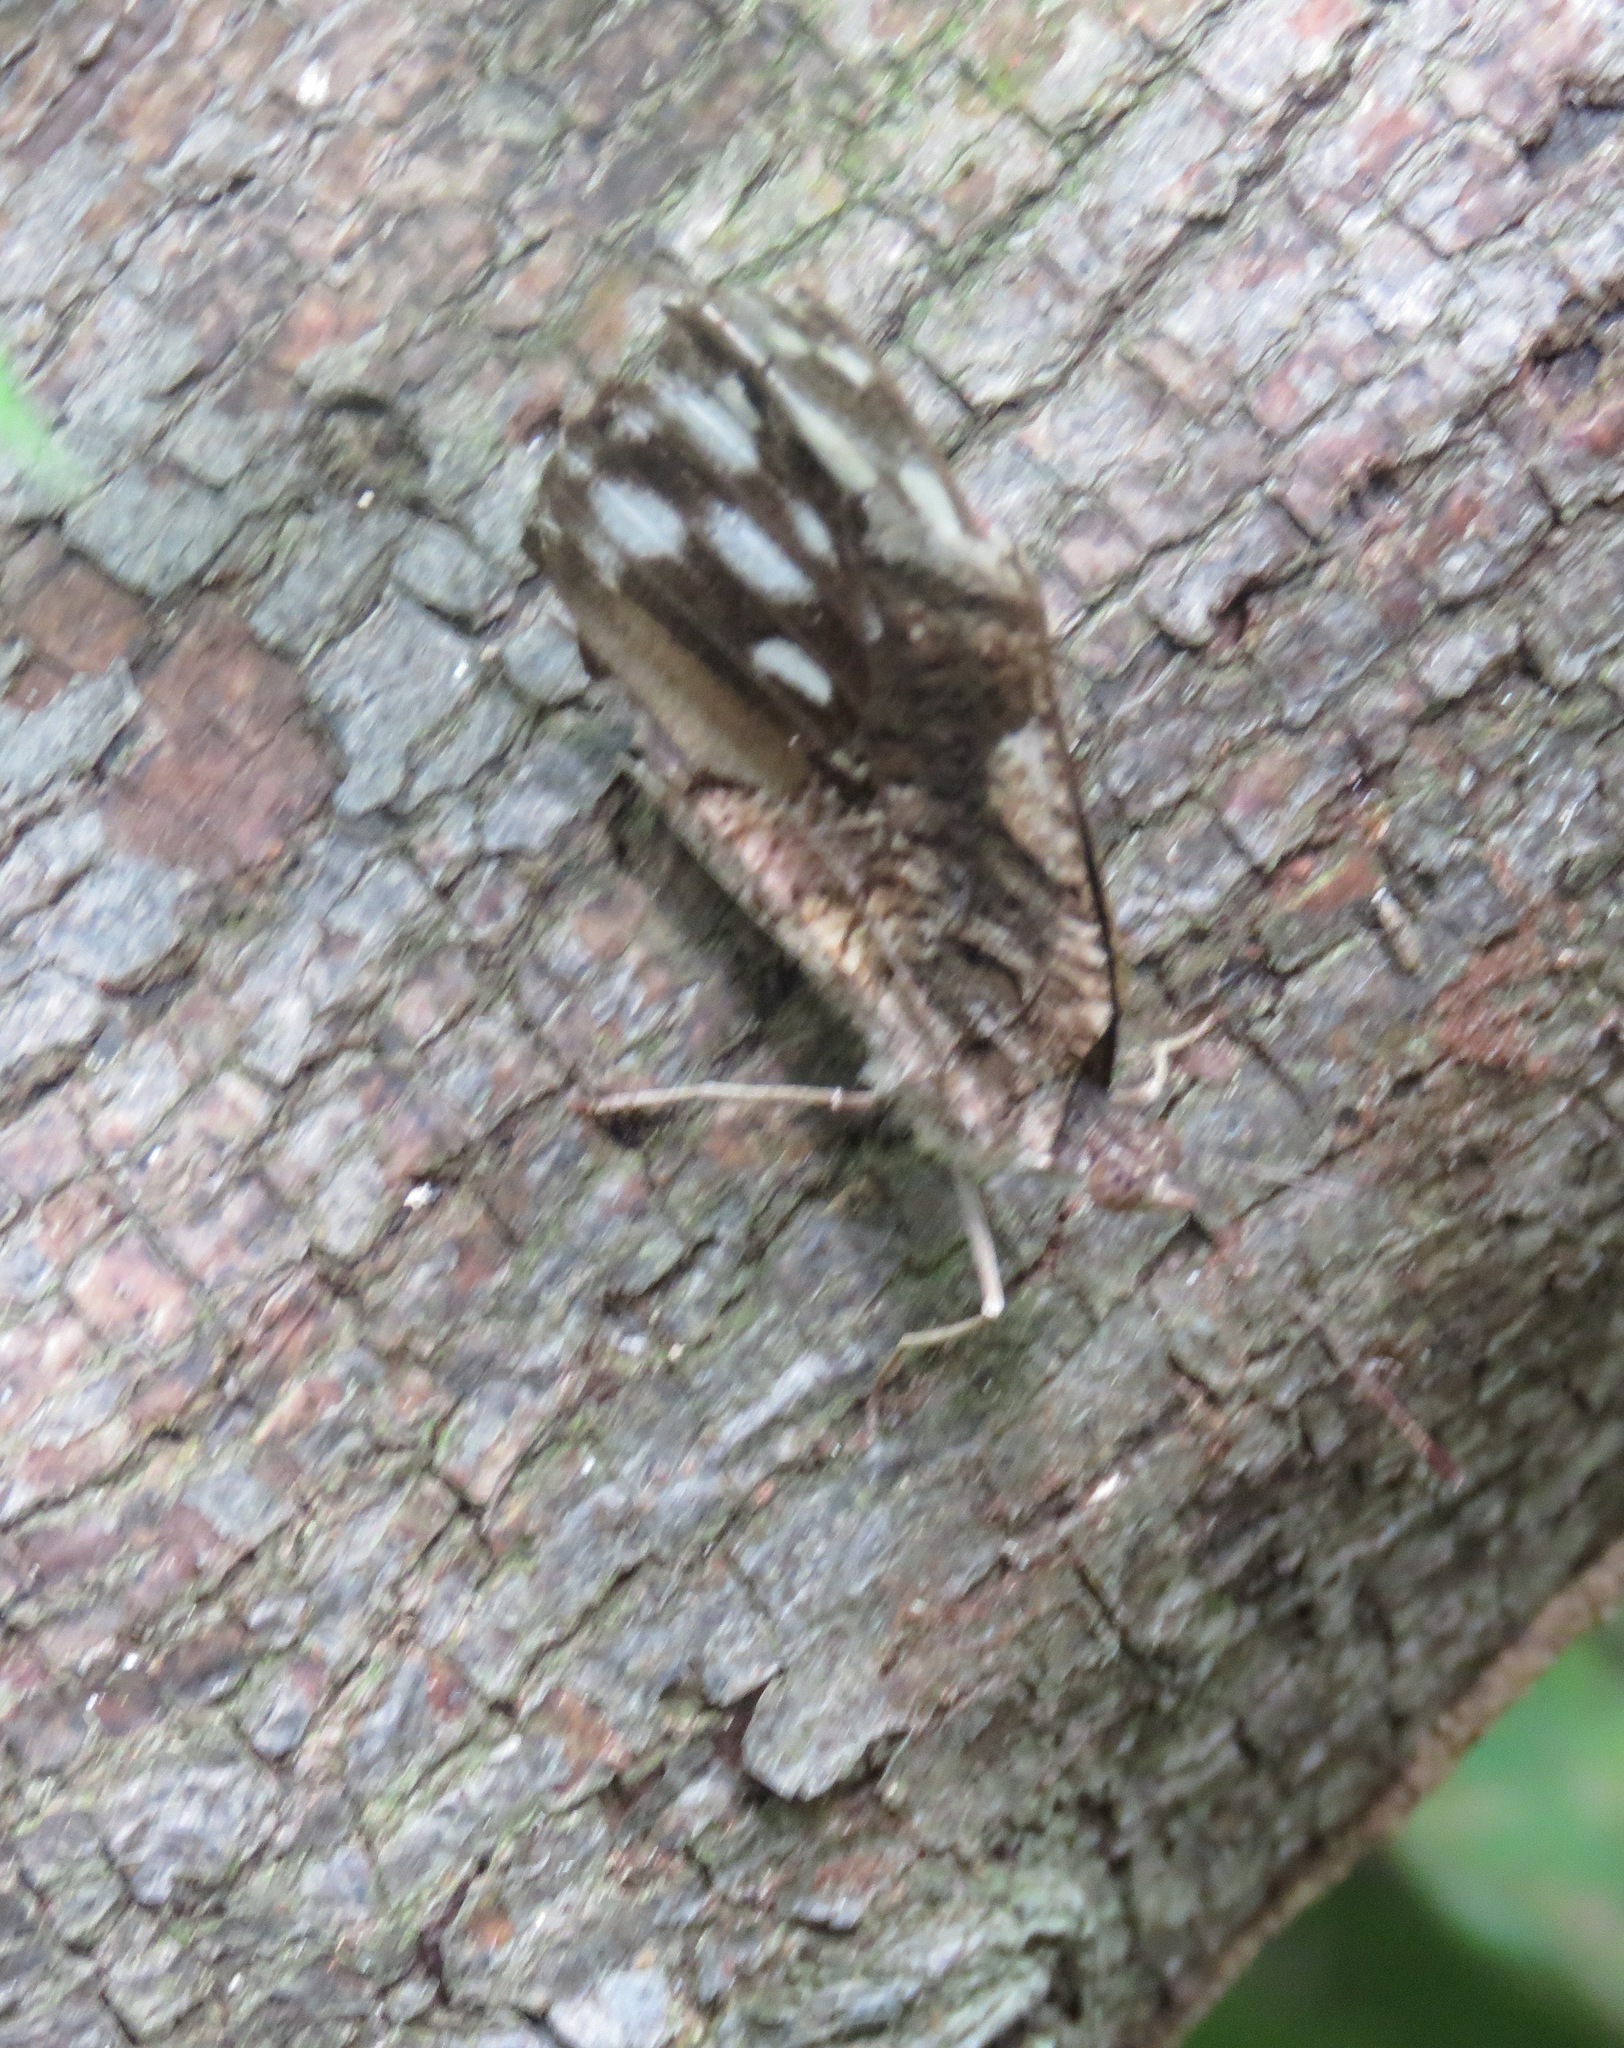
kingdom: Animalia
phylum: Arthropoda
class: Insecta
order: Lepidoptera
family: Nymphalidae
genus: Myscelia
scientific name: Myscelia ethusa
